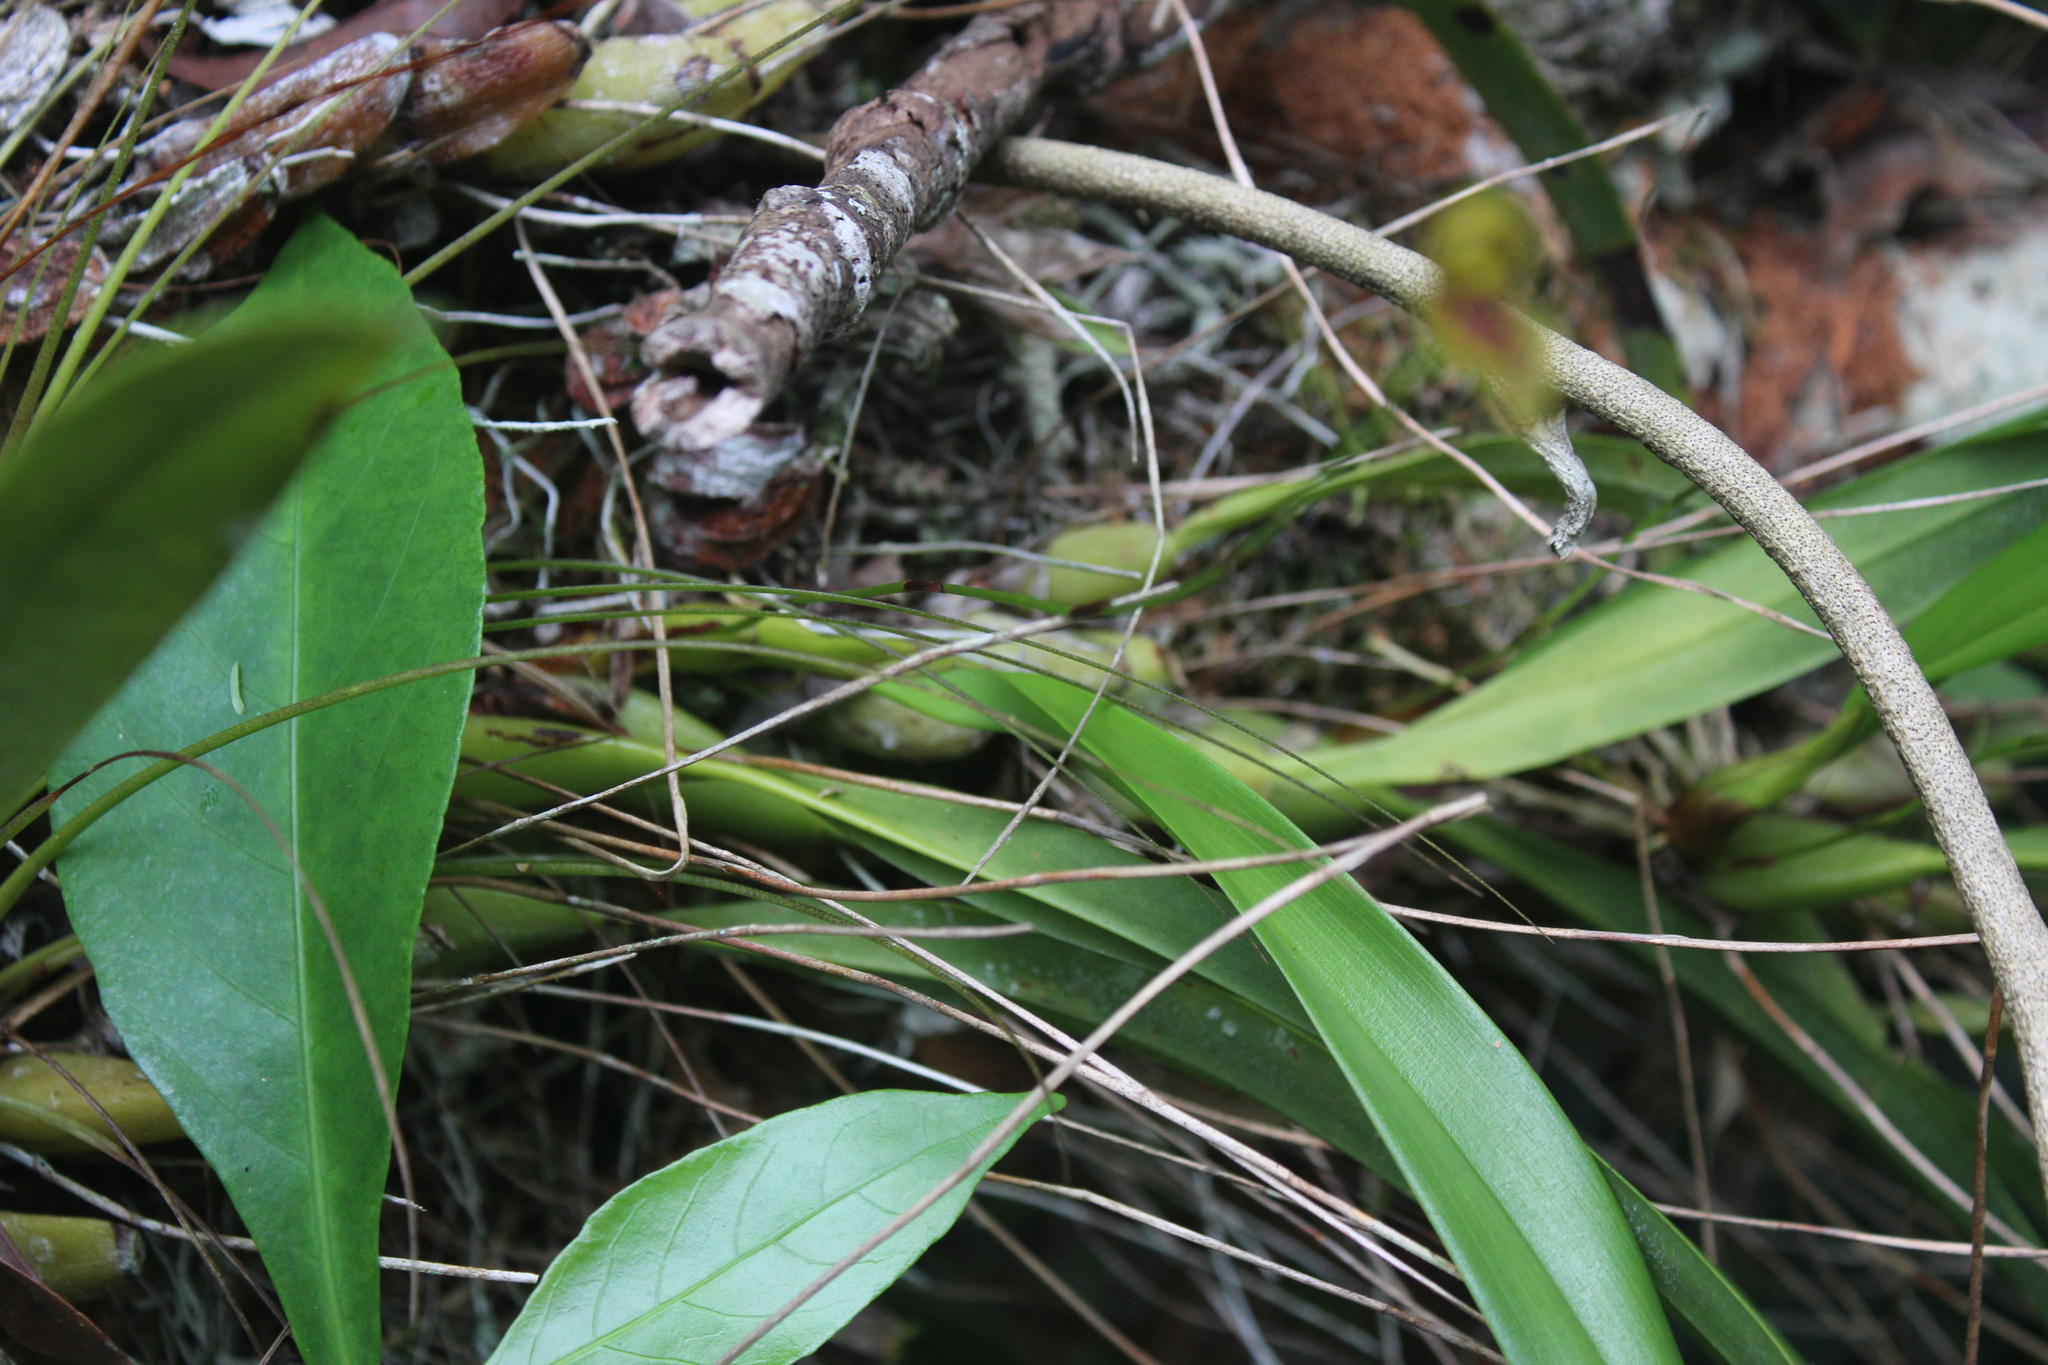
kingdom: Plantae
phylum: Tracheophyta
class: Liliopsida
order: Asparagales
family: Orchidaceae
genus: Maxillaria
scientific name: Maxillaria lineolata
